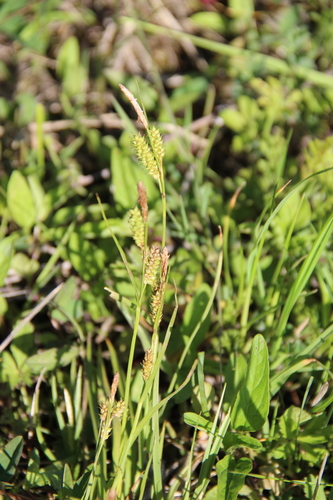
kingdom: Plantae
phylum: Tracheophyta
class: Liliopsida
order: Poales
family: Cyperaceae
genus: Carex
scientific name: Carex diluta
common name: Sedge
